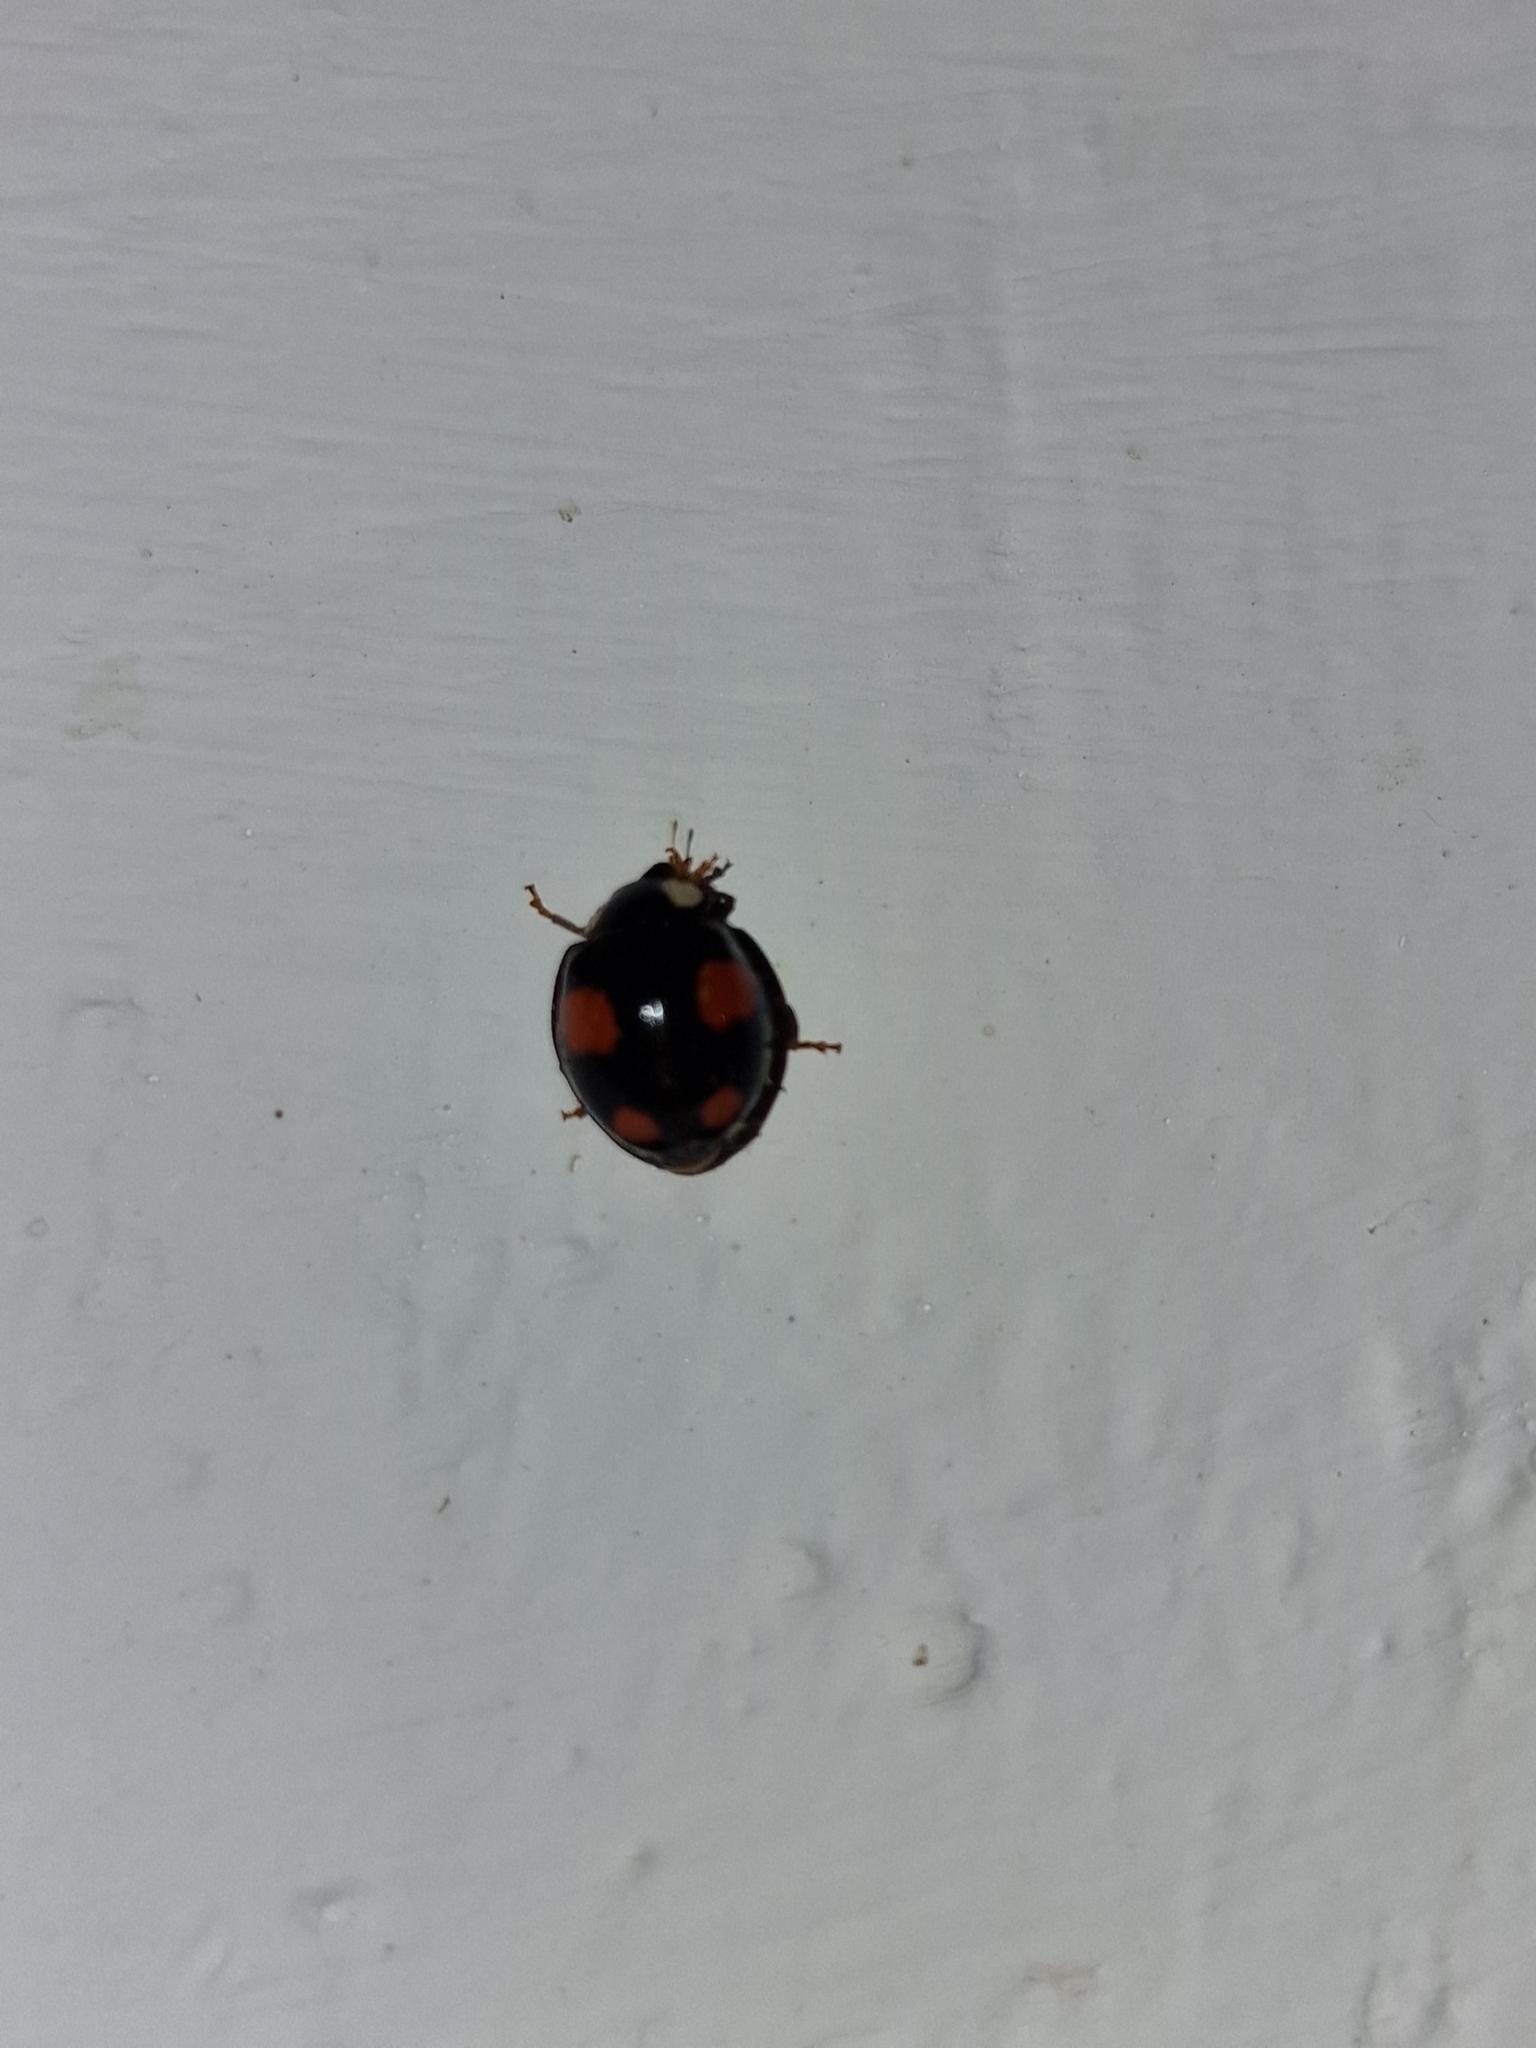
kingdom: Animalia
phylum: Arthropoda
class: Insecta
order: Coleoptera
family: Coccinellidae
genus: Harmonia
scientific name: Harmonia axyridis
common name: Harlequin ladybird
